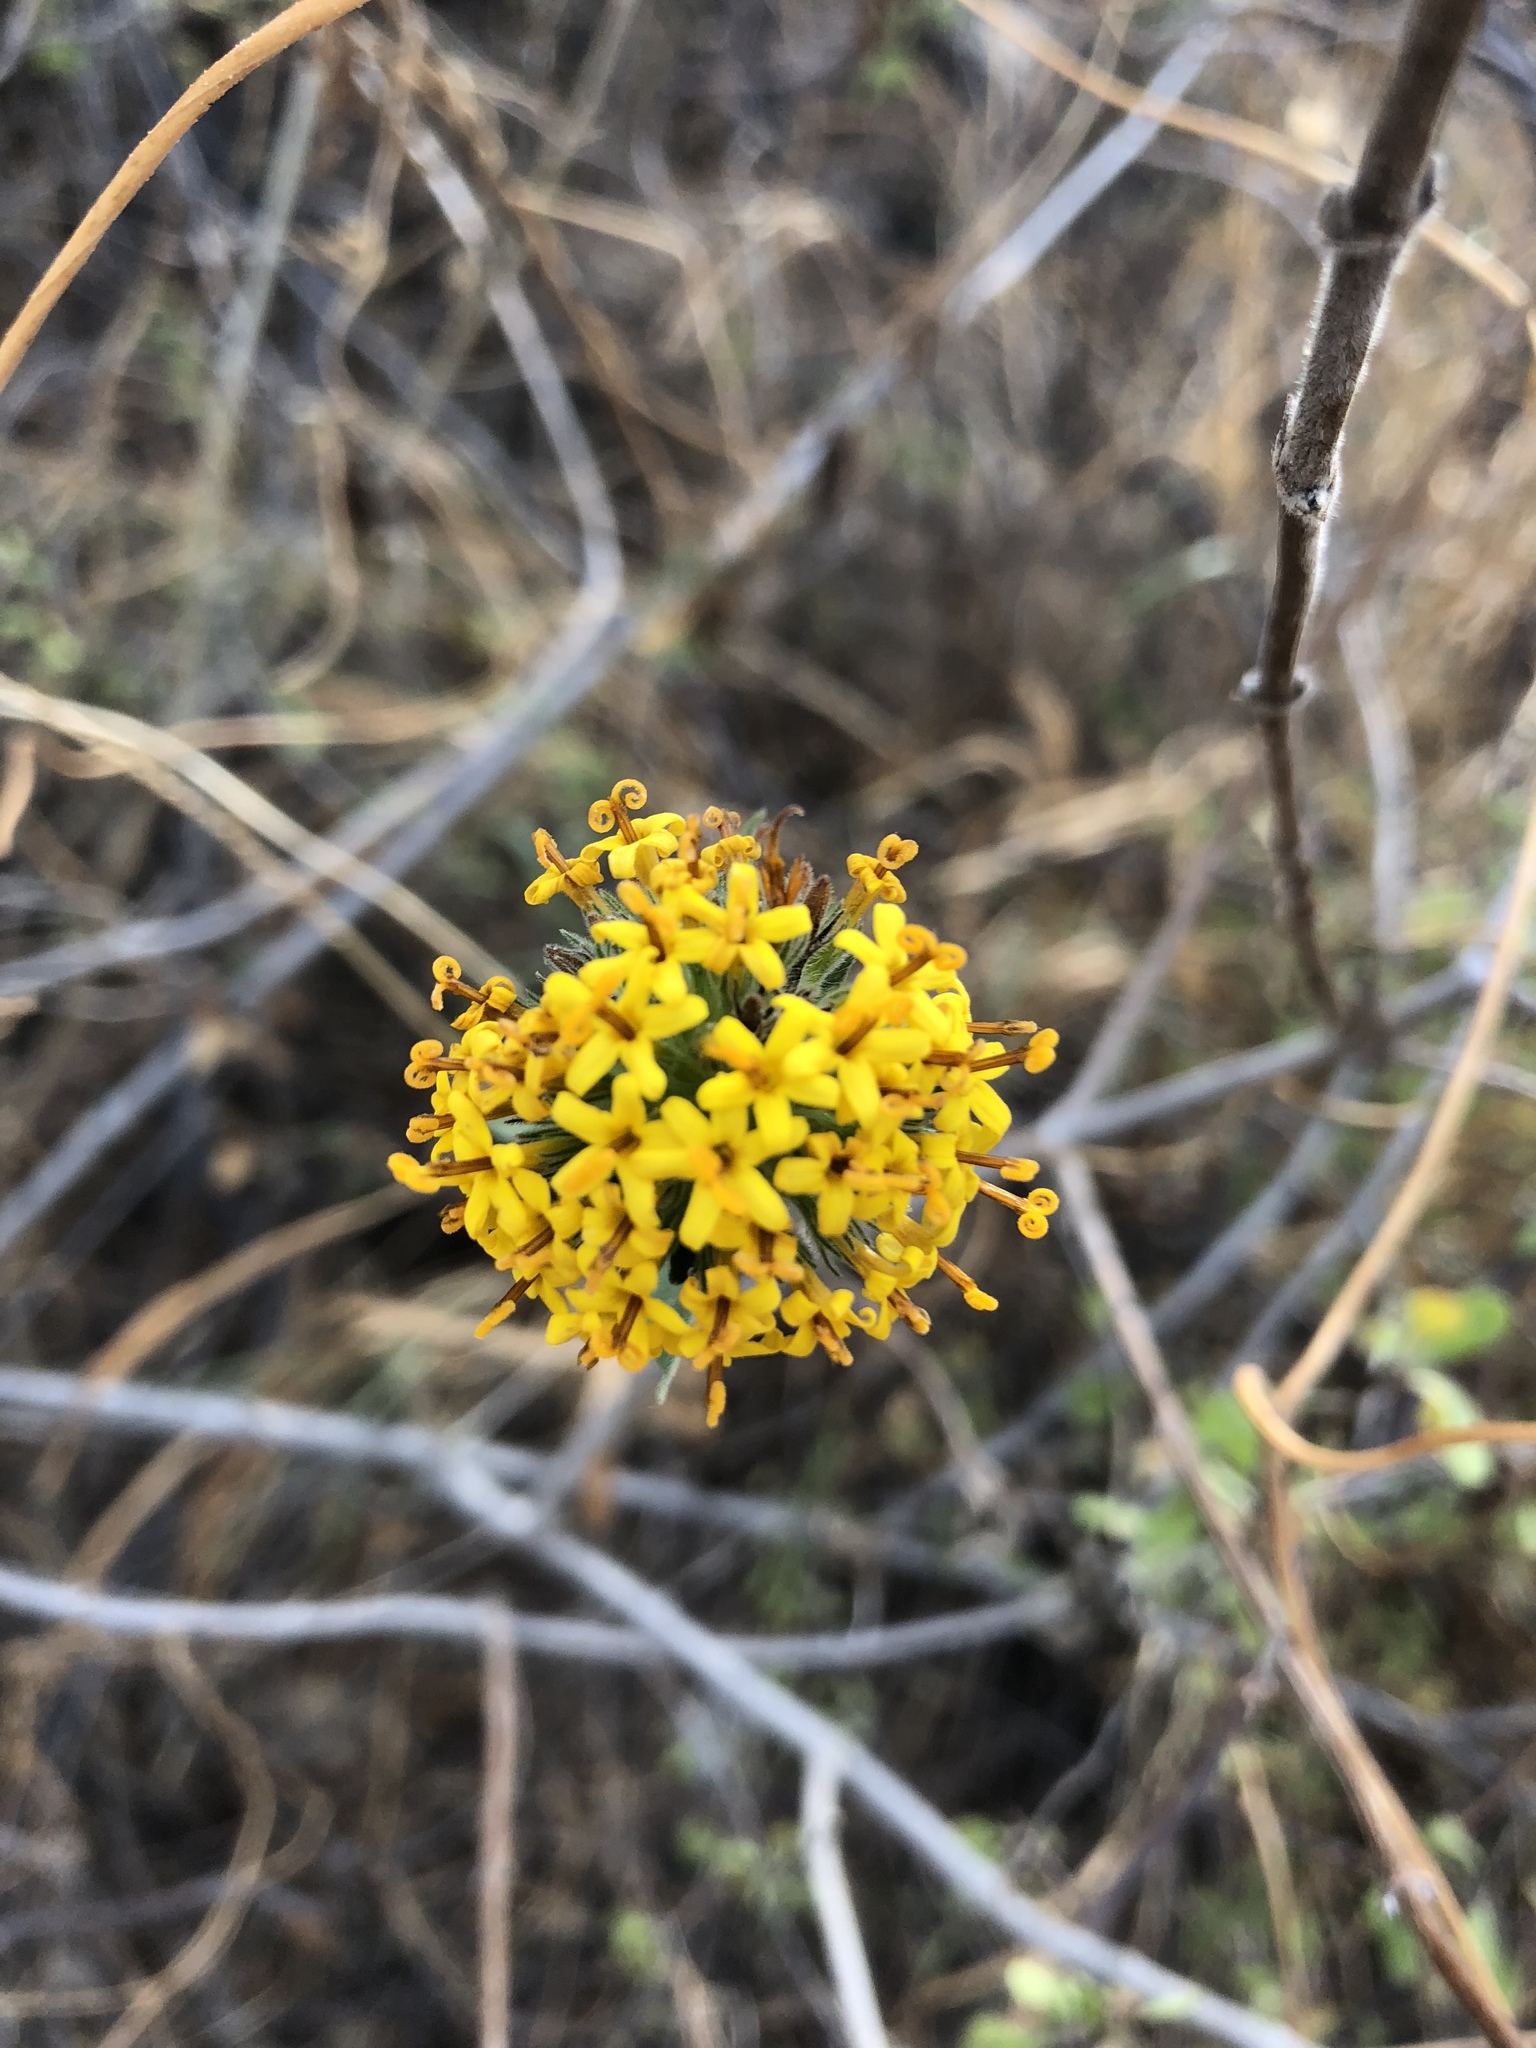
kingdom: Plantae
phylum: Tracheophyta
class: Magnoliopsida
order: Asterales
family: Asteraceae
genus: Lagascea
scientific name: Lagascea decipiens
